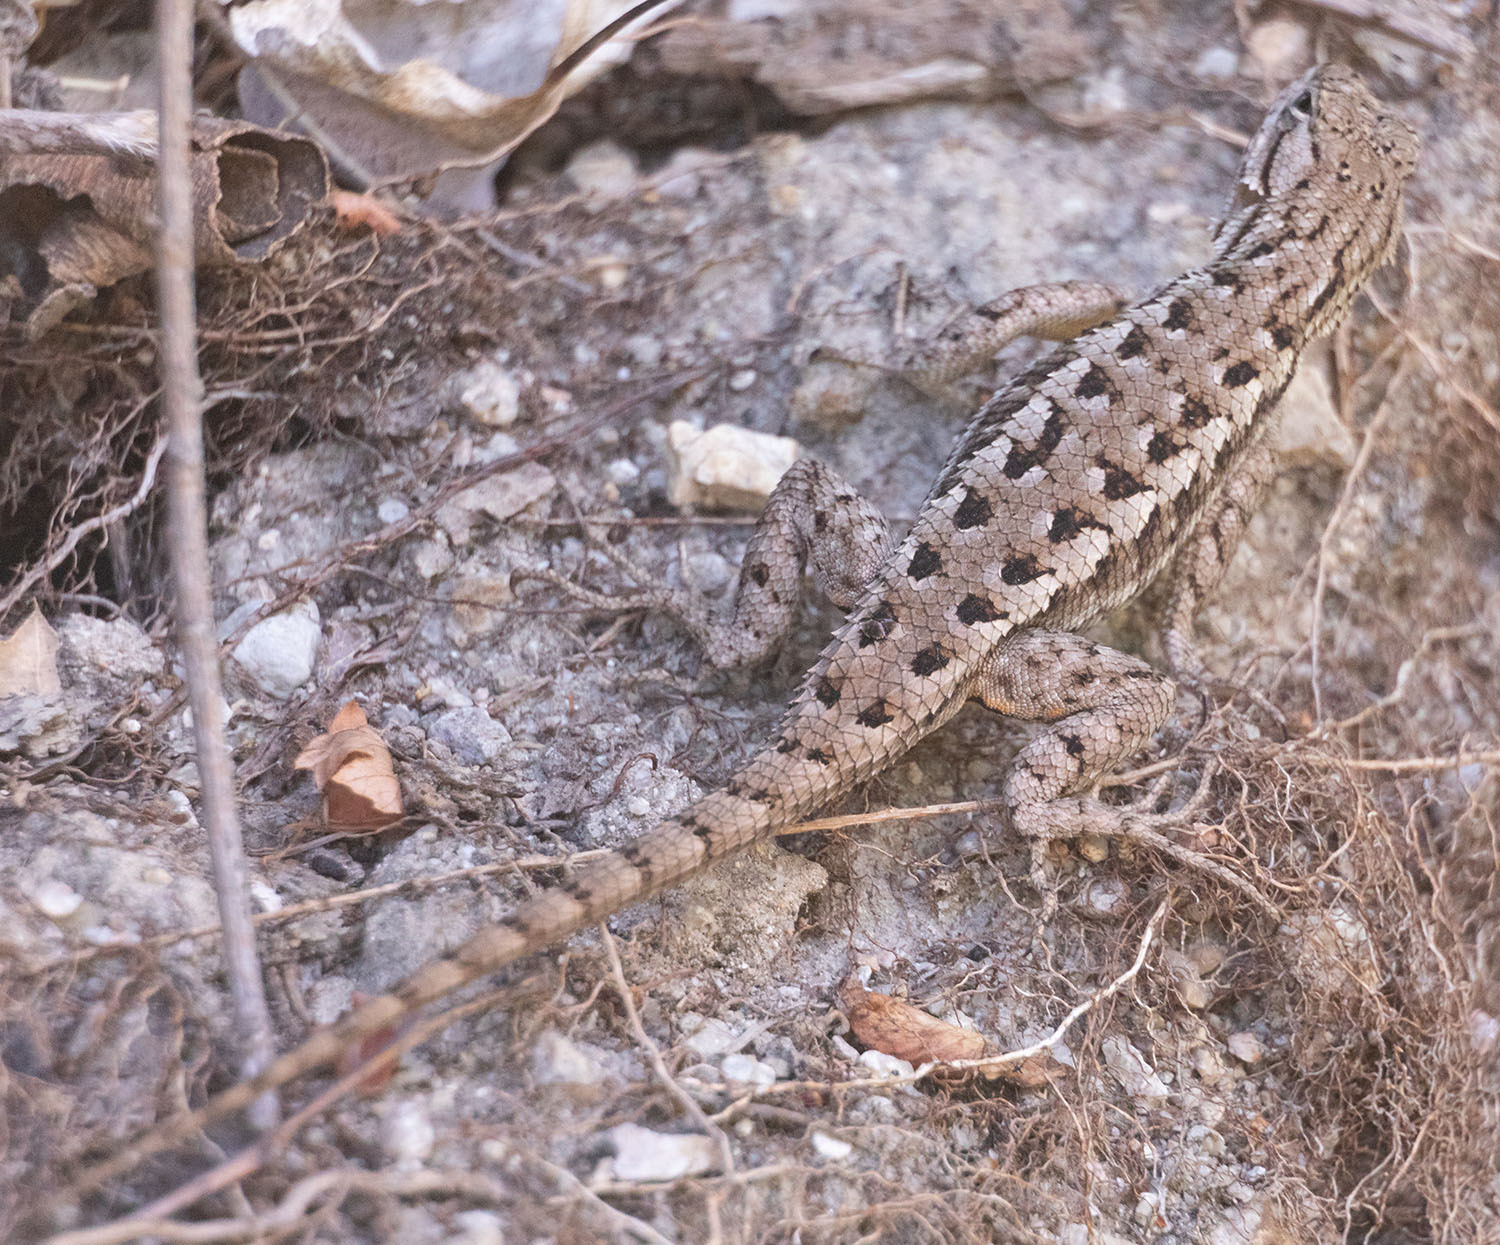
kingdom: Animalia
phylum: Chordata
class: Squamata
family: Phrynosomatidae
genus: Sceloporus
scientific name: Sceloporus occidentalis
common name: Western fence lizard
